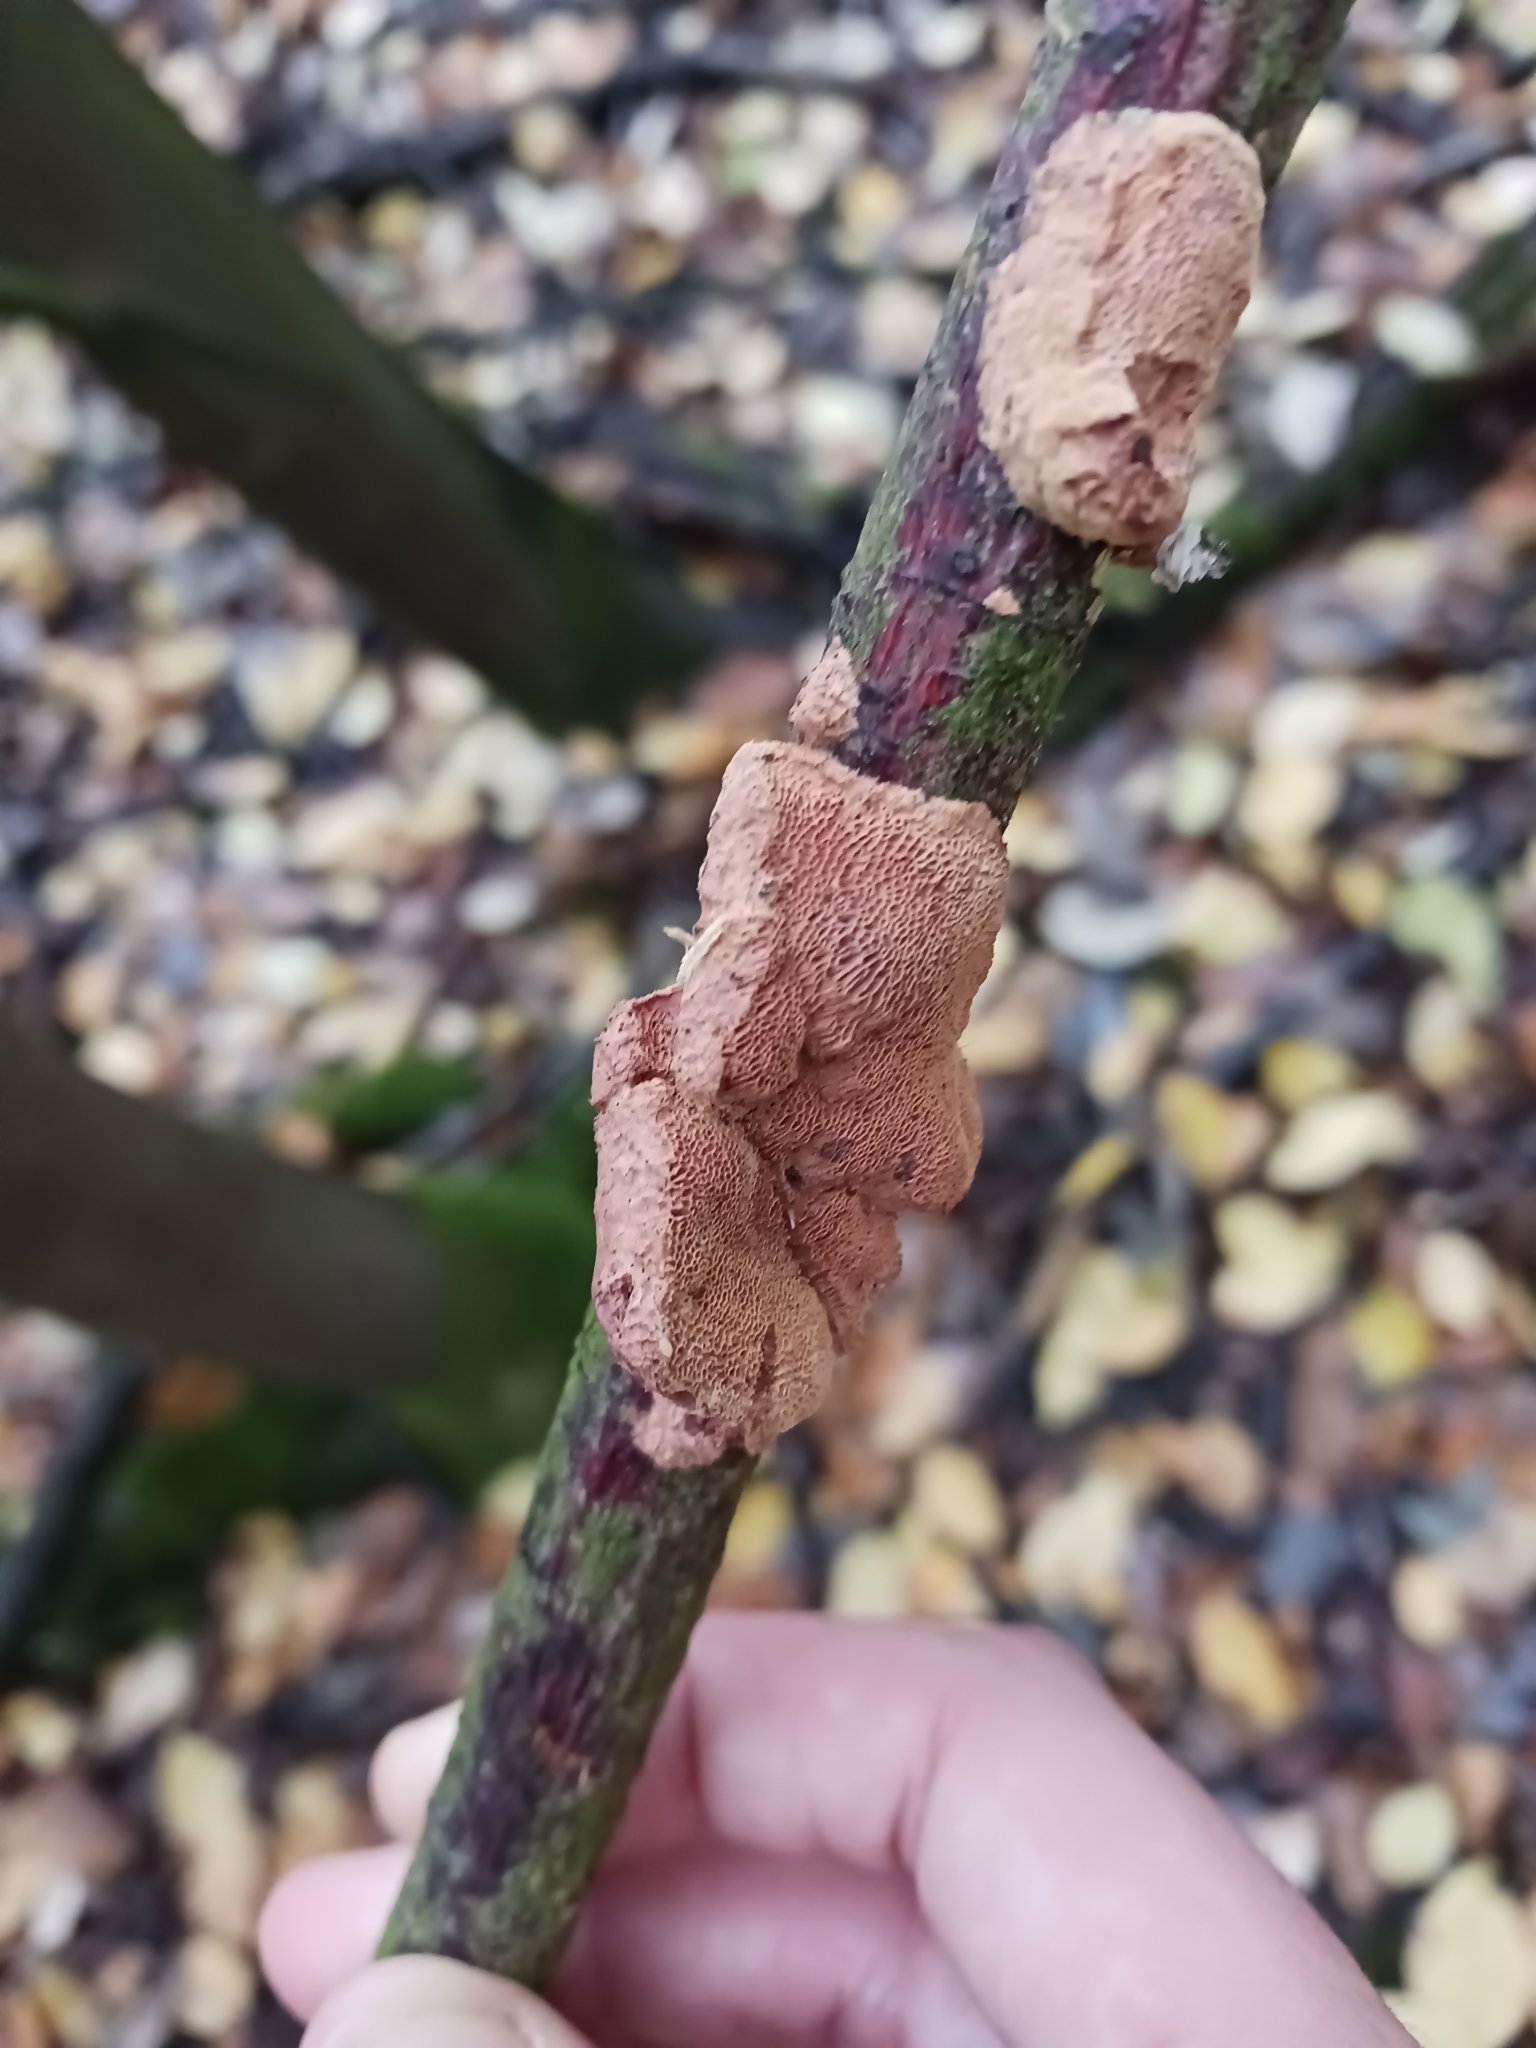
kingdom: Fungi
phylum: Basidiomycota
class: Agaricomycetes
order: Polyporales
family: Phanerochaetaceae
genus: Hapalopilus
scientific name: Hapalopilus rutilans
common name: Tender nesting polypore
